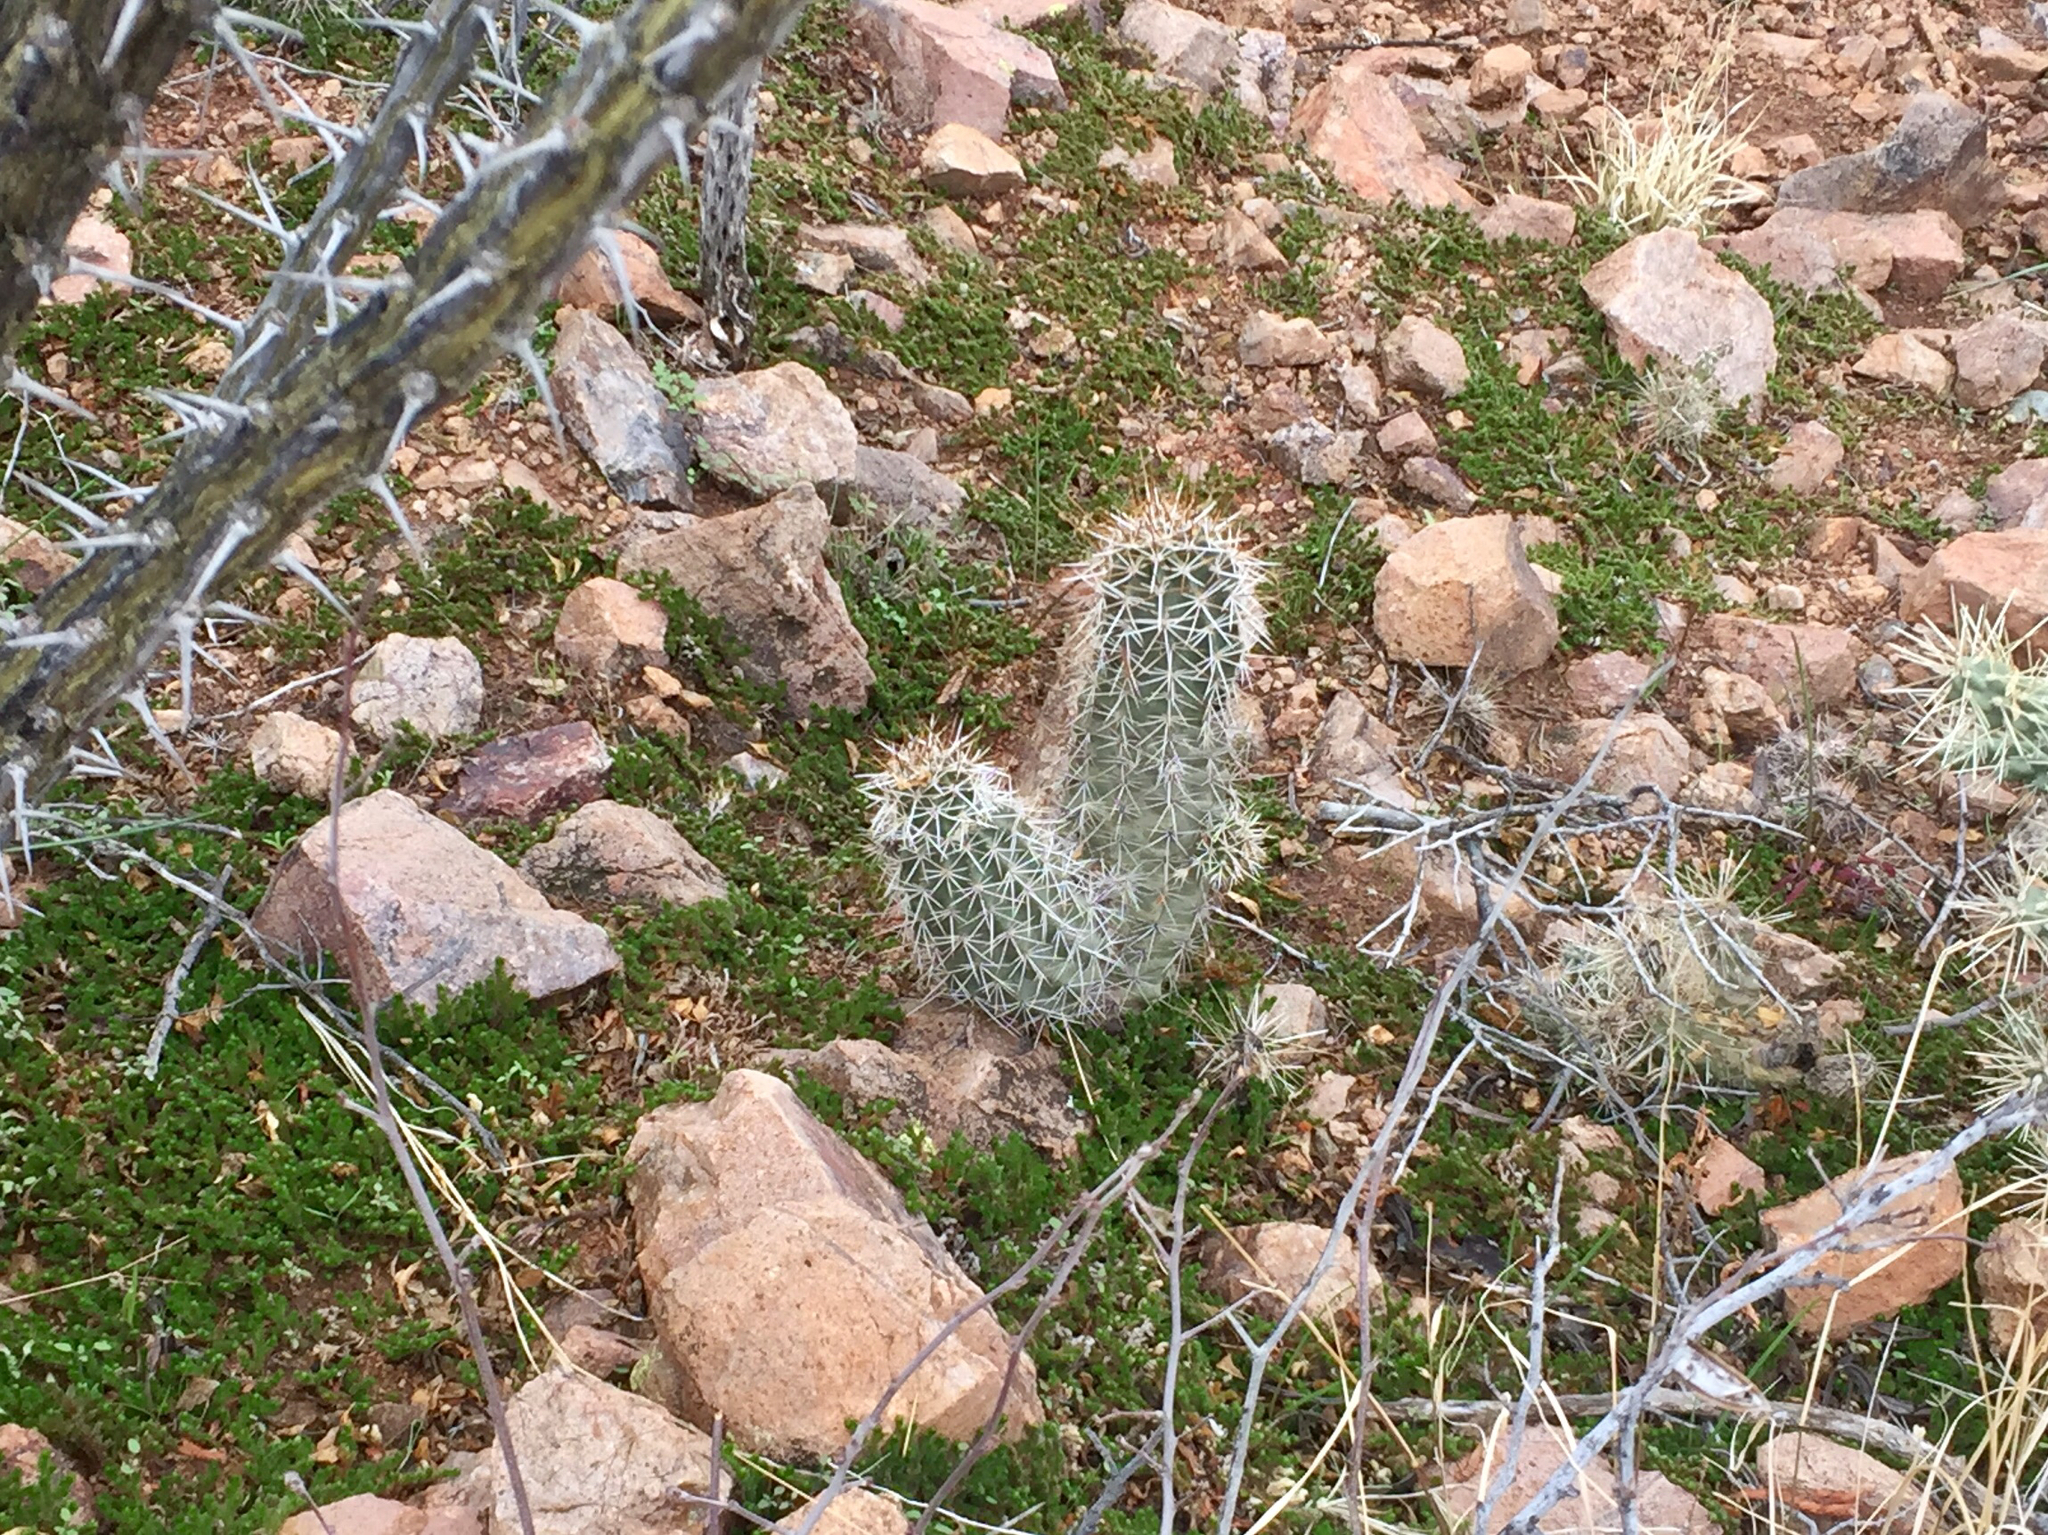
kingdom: Plantae
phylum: Tracheophyta
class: Magnoliopsida
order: Caryophyllales
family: Cactaceae
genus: Echinocereus
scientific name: Echinocereus fendleri
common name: Fendler's hedgehog cactus
